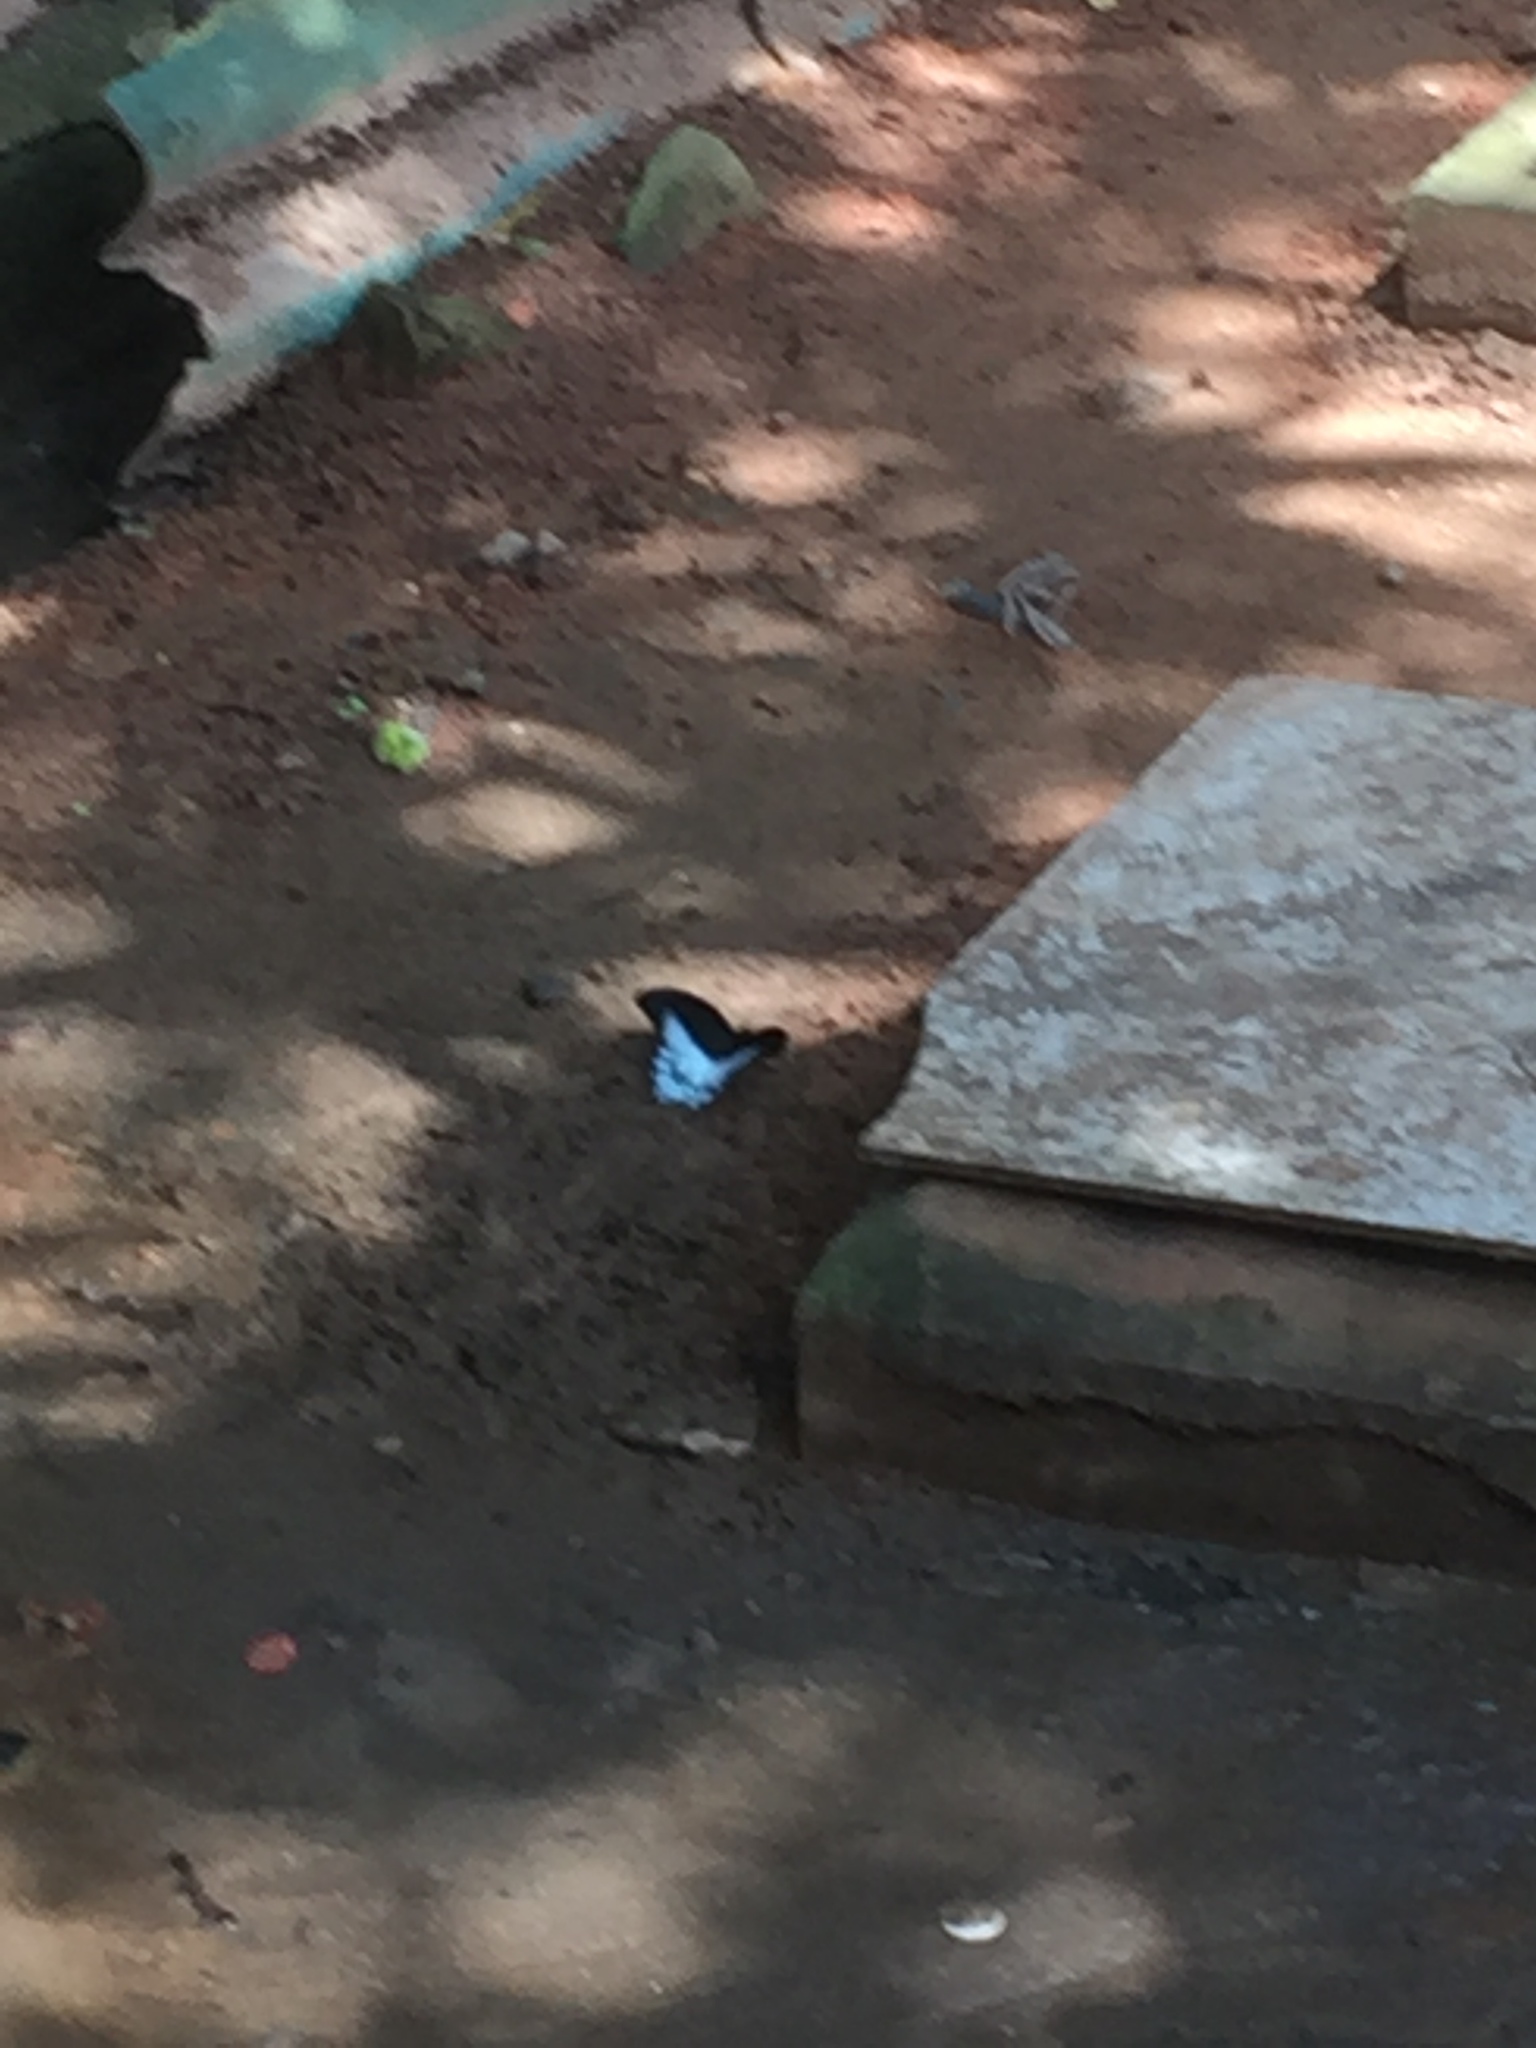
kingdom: Animalia
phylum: Arthropoda
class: Insecta
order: Lepidoptera
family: Papilionidae
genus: Papilio
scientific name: Papilio memnon
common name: Great mormon
